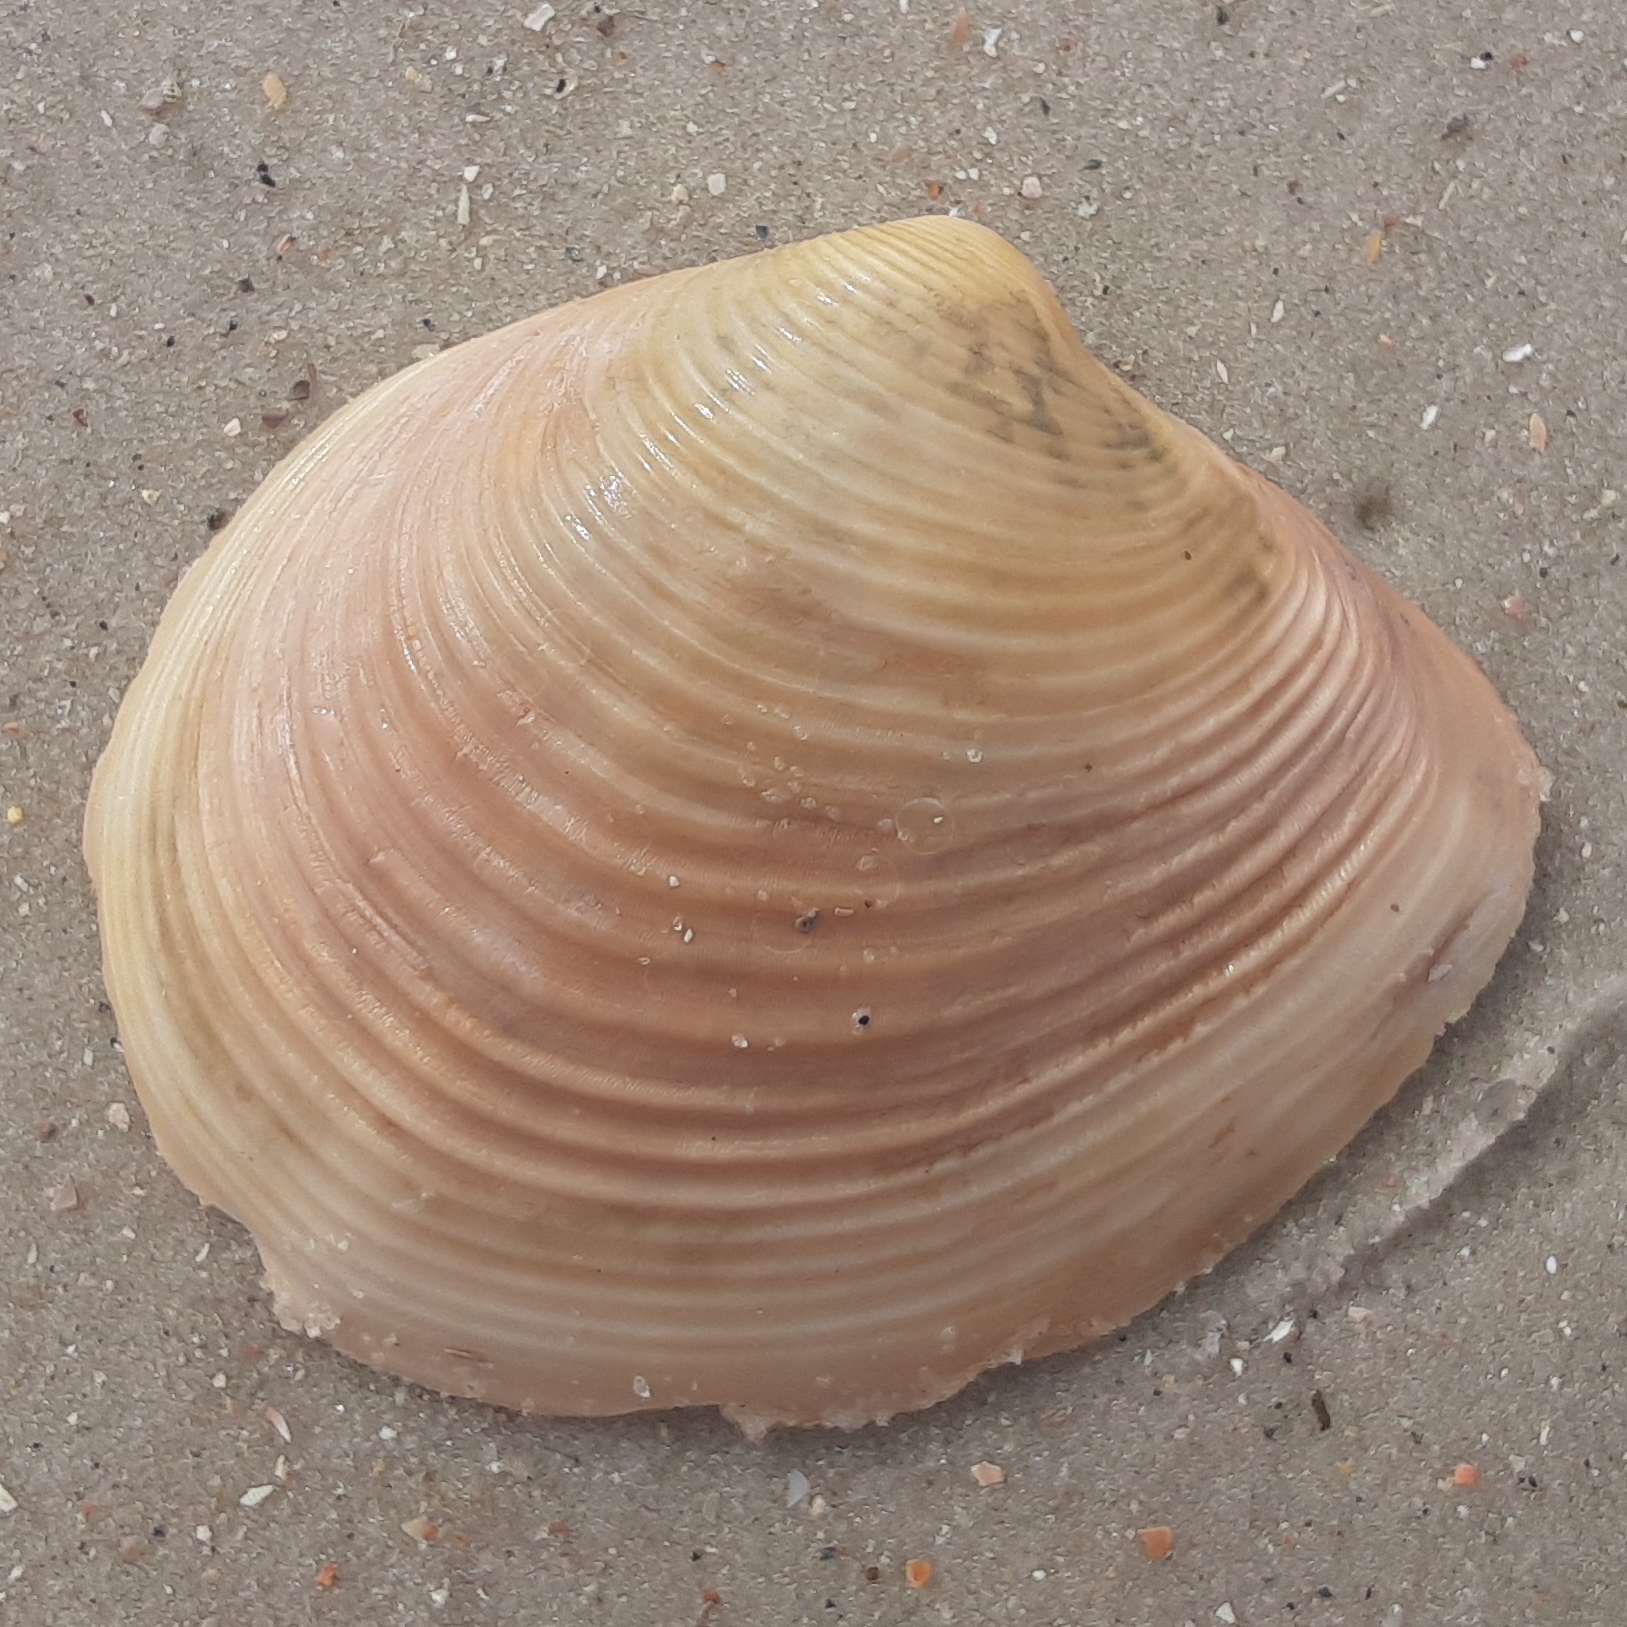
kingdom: Animalia
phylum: Mollusca
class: Bivalvia
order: Venerida
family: Anatinellidae
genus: Raeta
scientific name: Raeta plicatella
